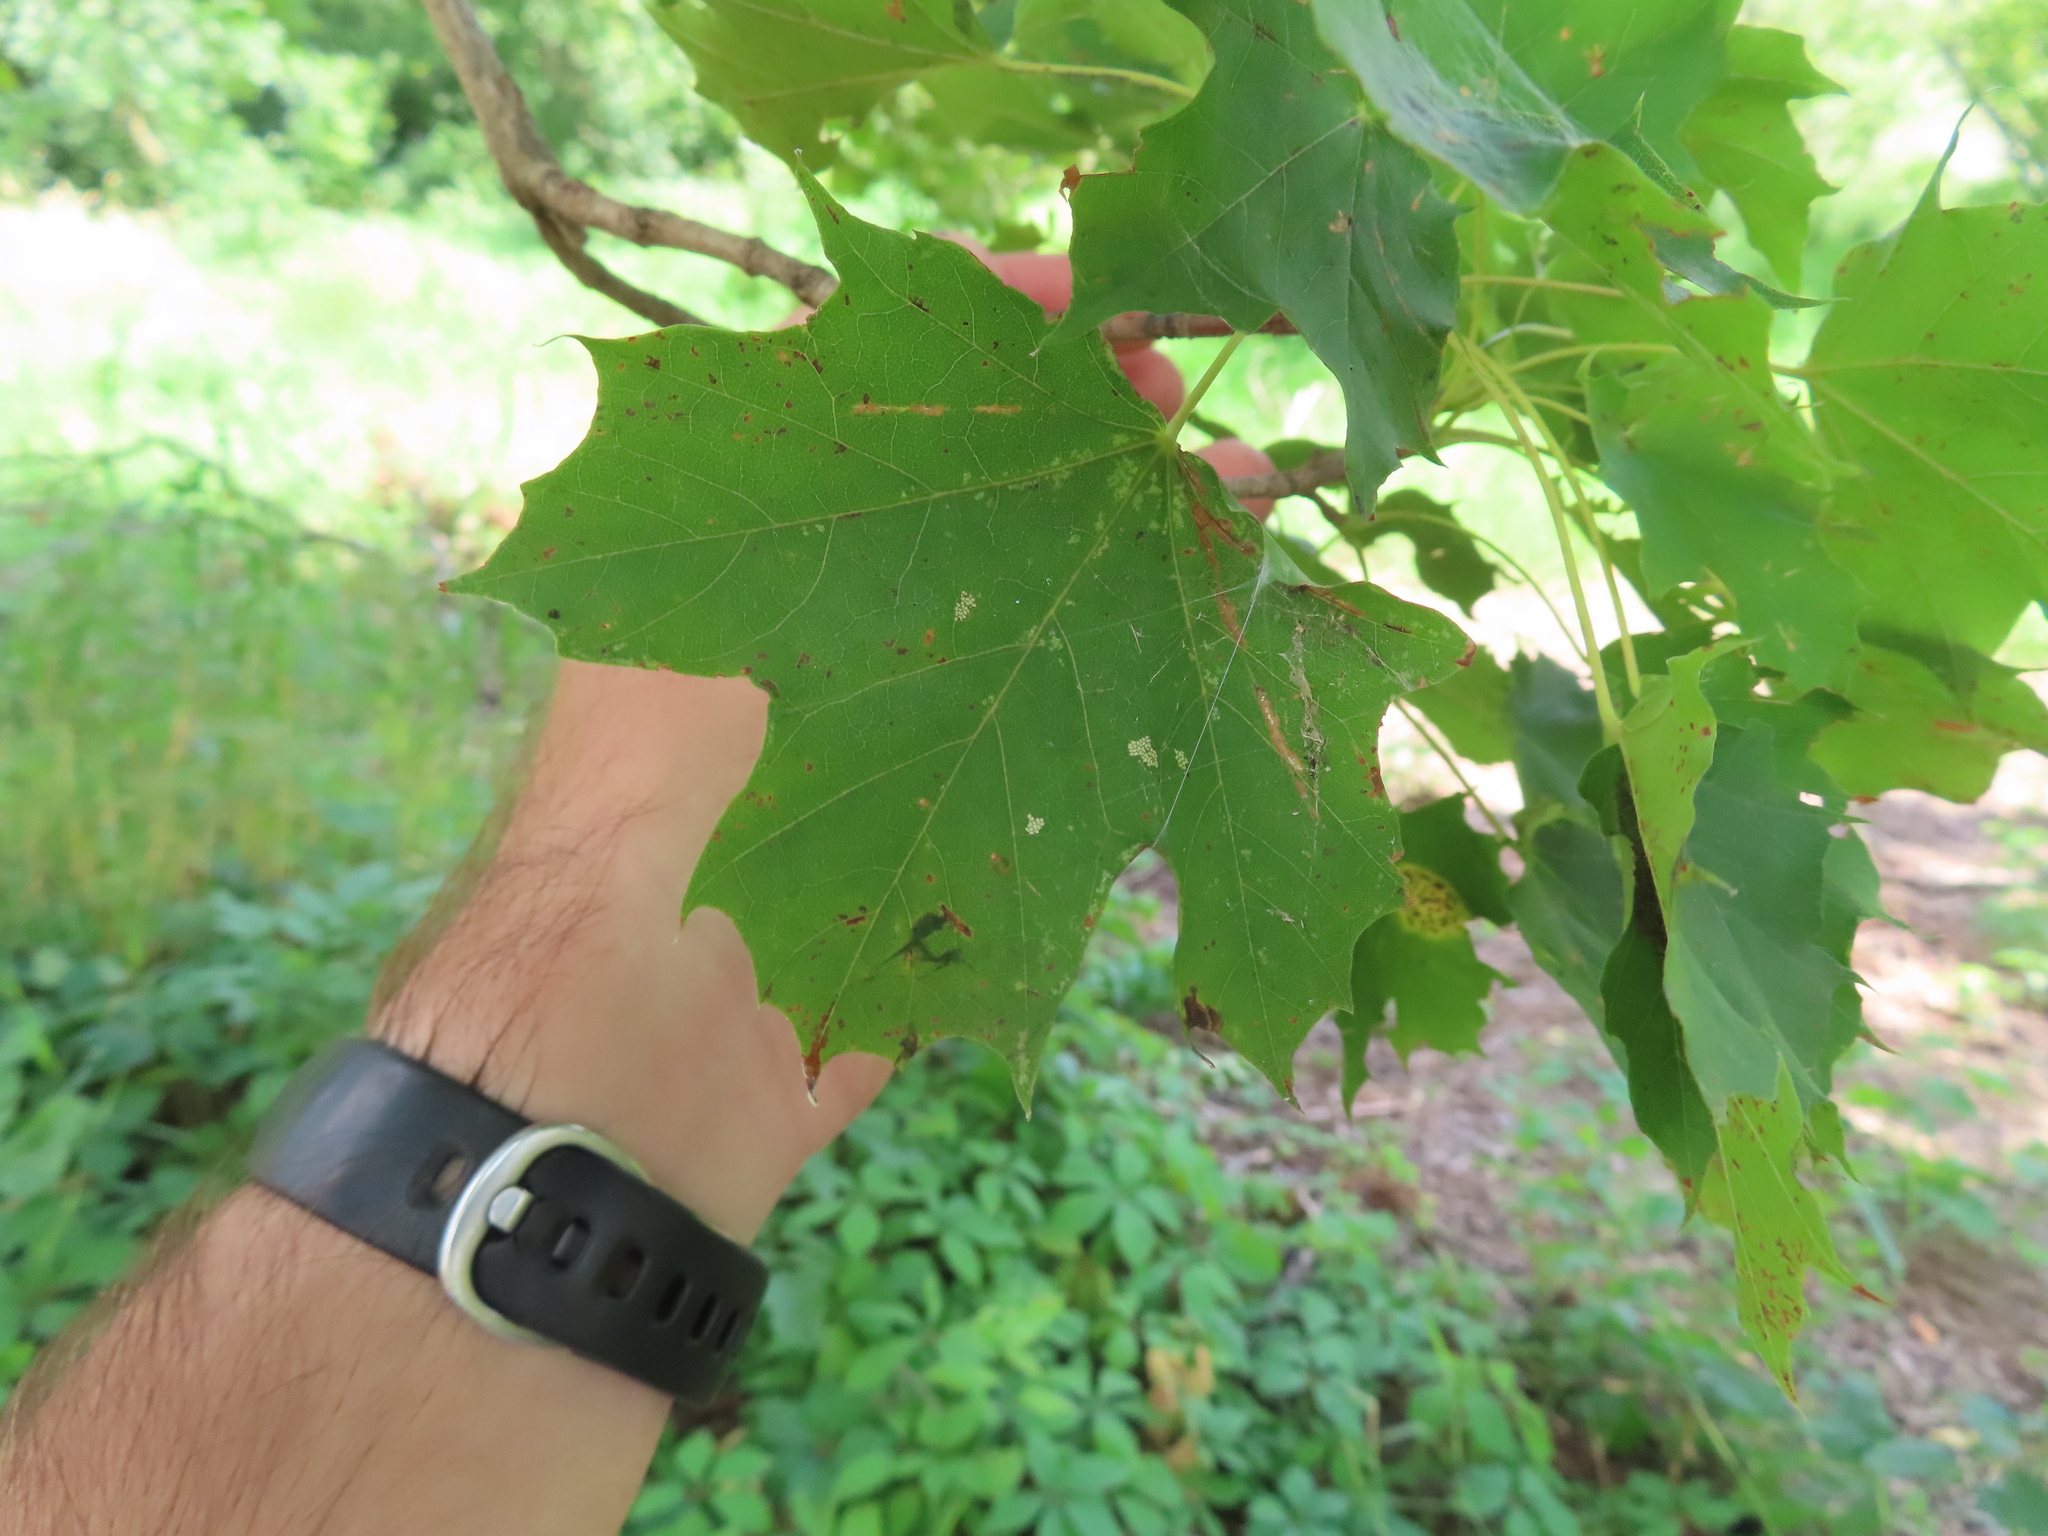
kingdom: Plantae
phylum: Tracheophyta
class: Magnoliopsida
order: Sapindales
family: Sapindaceae
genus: Acer
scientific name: Acer saccharum
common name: Sugar maple
